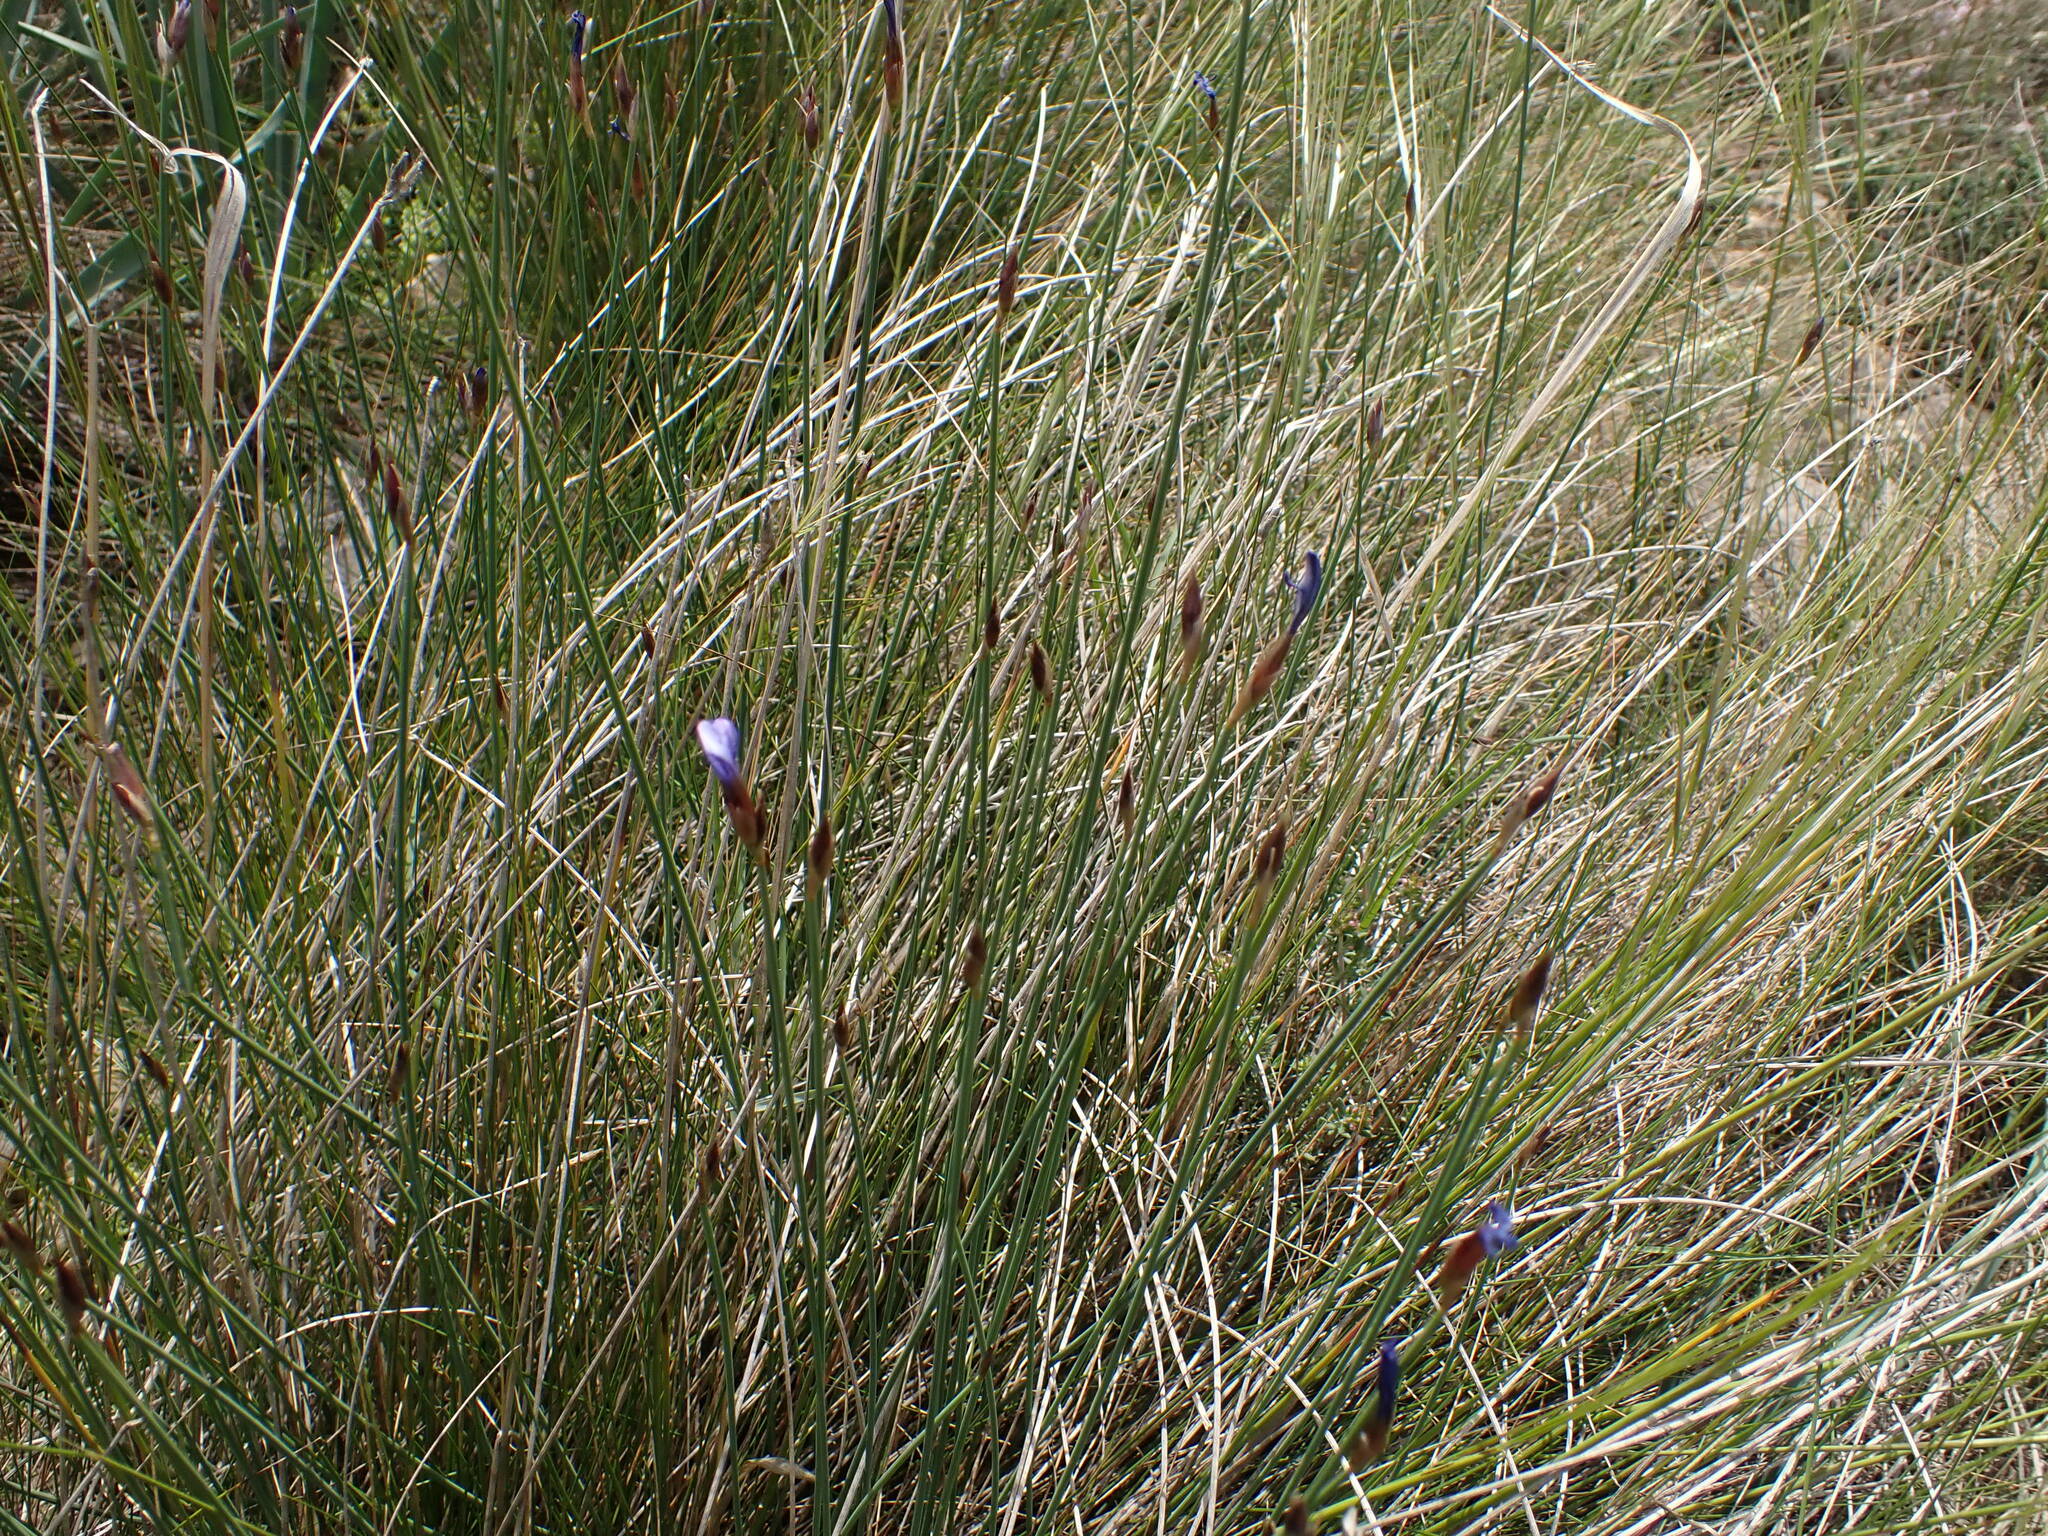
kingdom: Plantae
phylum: Tracheophyta
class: Liliopsida
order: Asparagales
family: Asparagaceae
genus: Aphyllanthes
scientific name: Aphyllanthes monspeliensis
